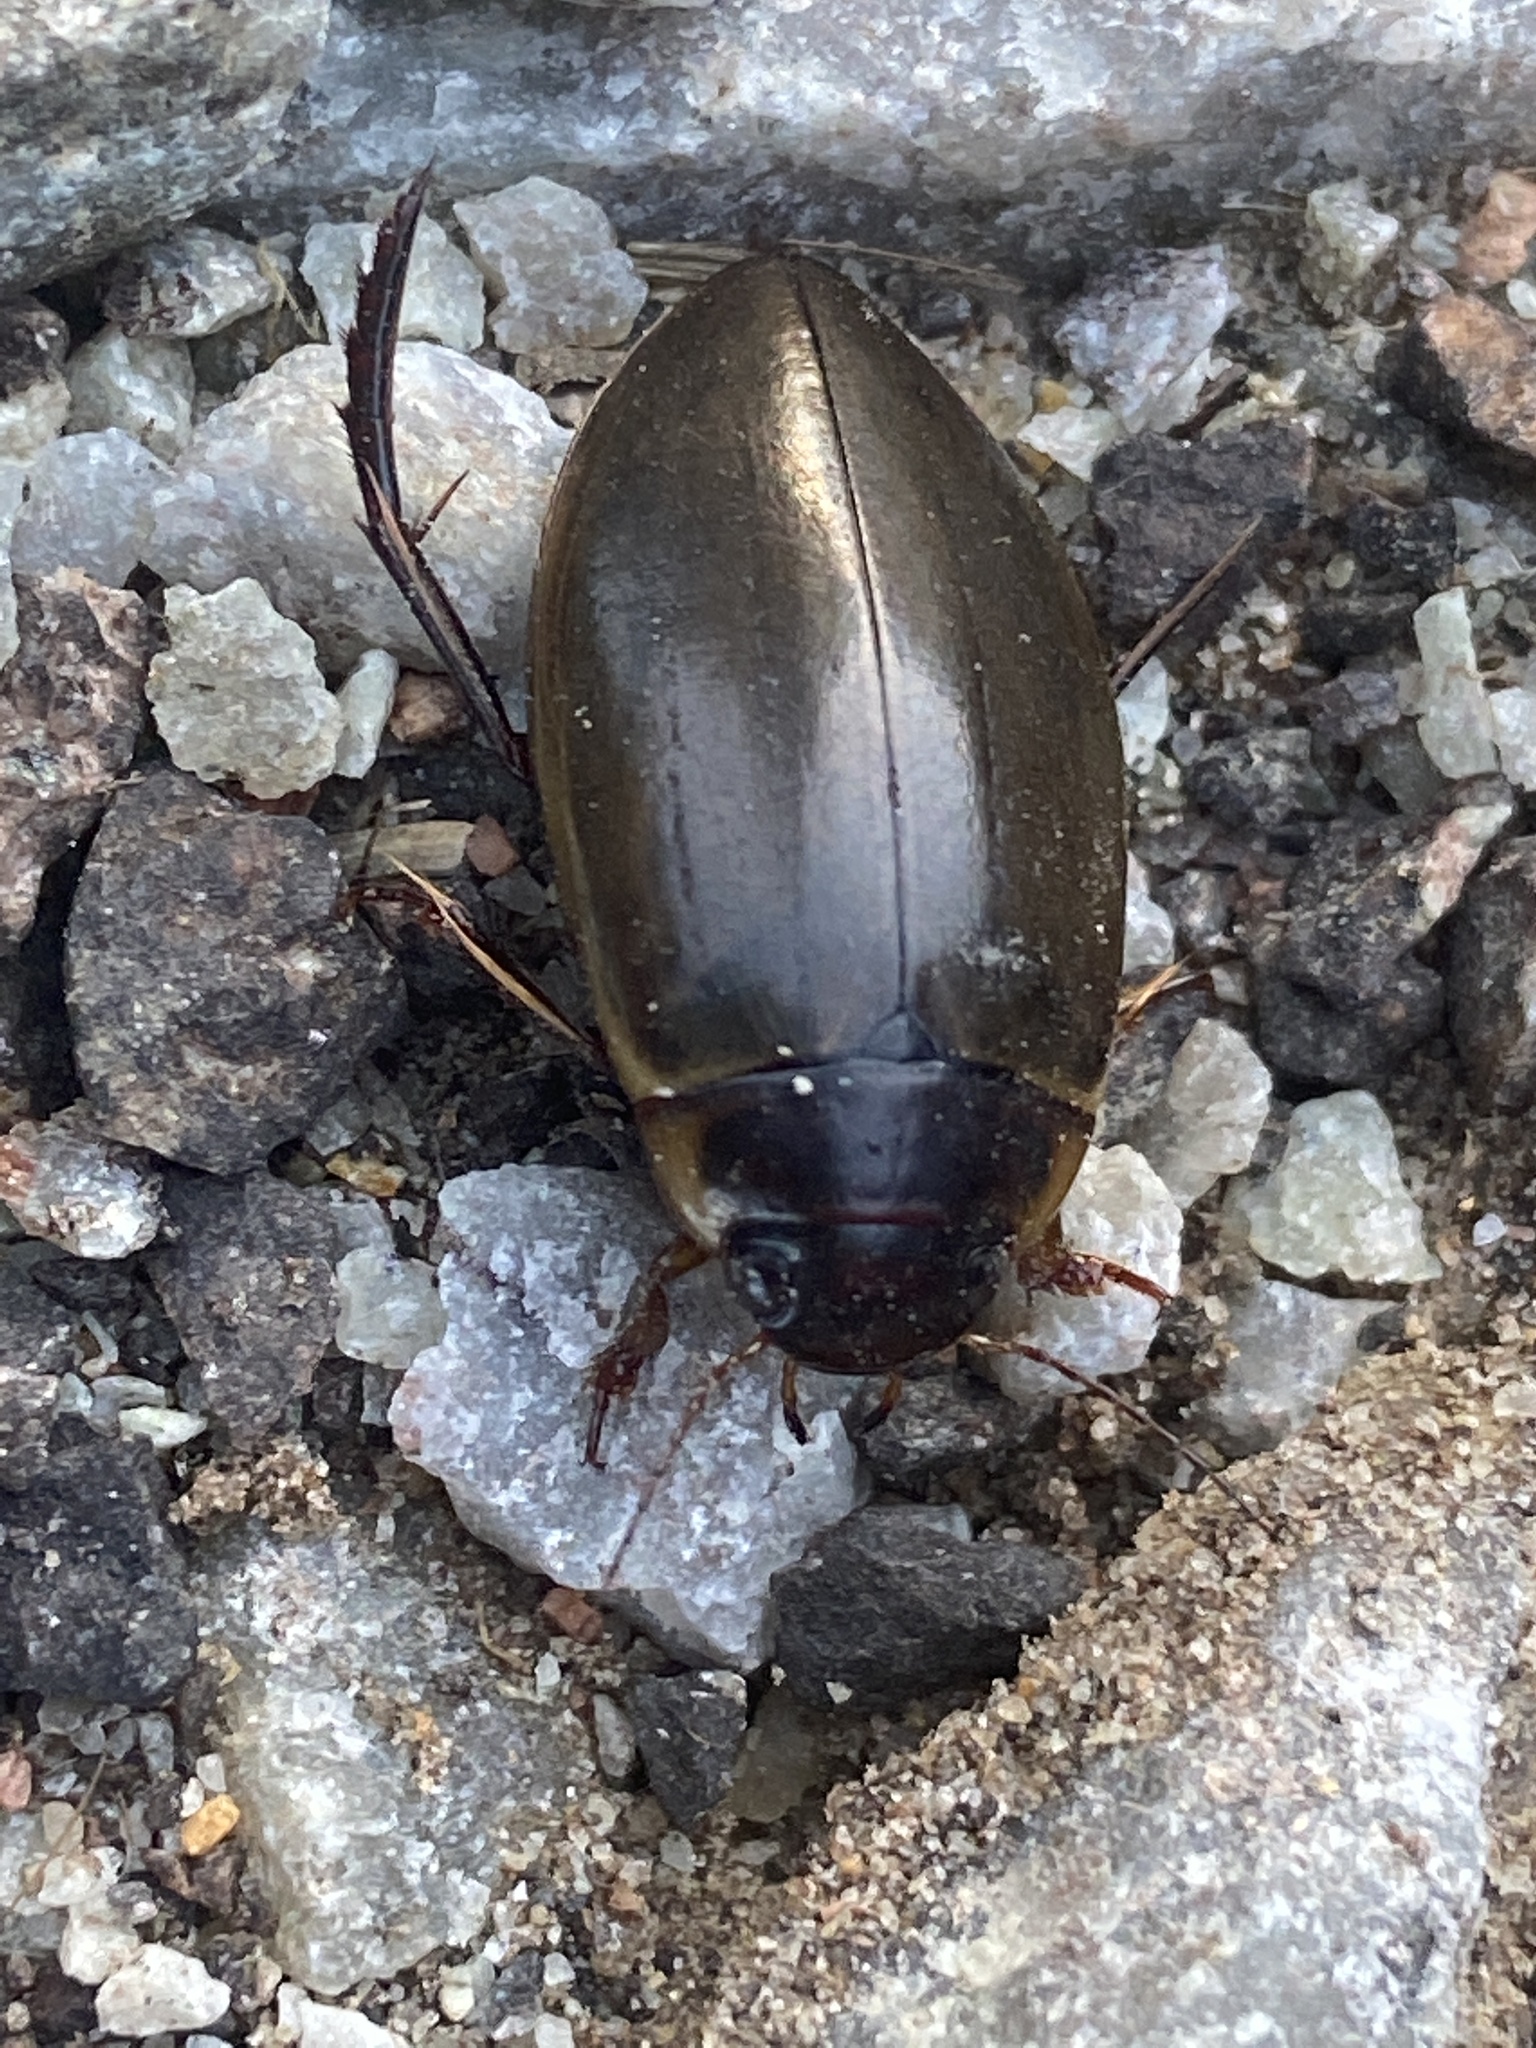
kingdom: Animalia
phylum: Arthropoda
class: Insecta
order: Coleoptera
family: Dytiscidae
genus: Colymbetes
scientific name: Colymbetes fuscus
